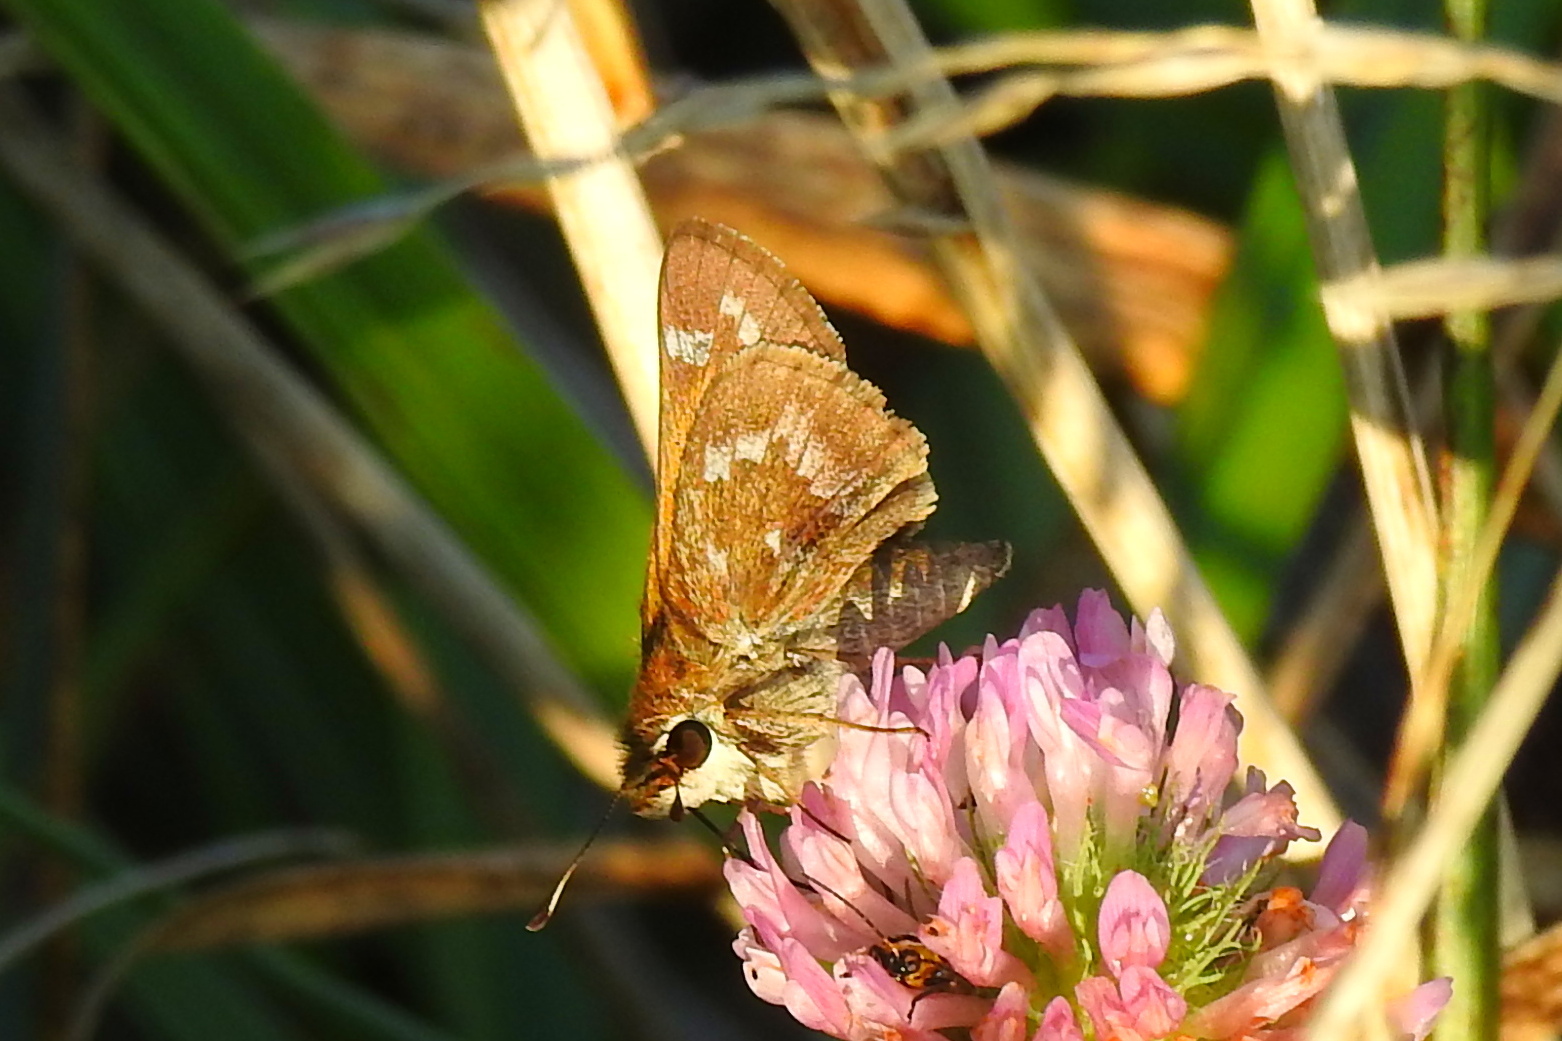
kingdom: Animalia
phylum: Arthropoda
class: Insecta
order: Lepidoptera
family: Hesperiidae
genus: Atalopedes
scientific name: Atalopedes
